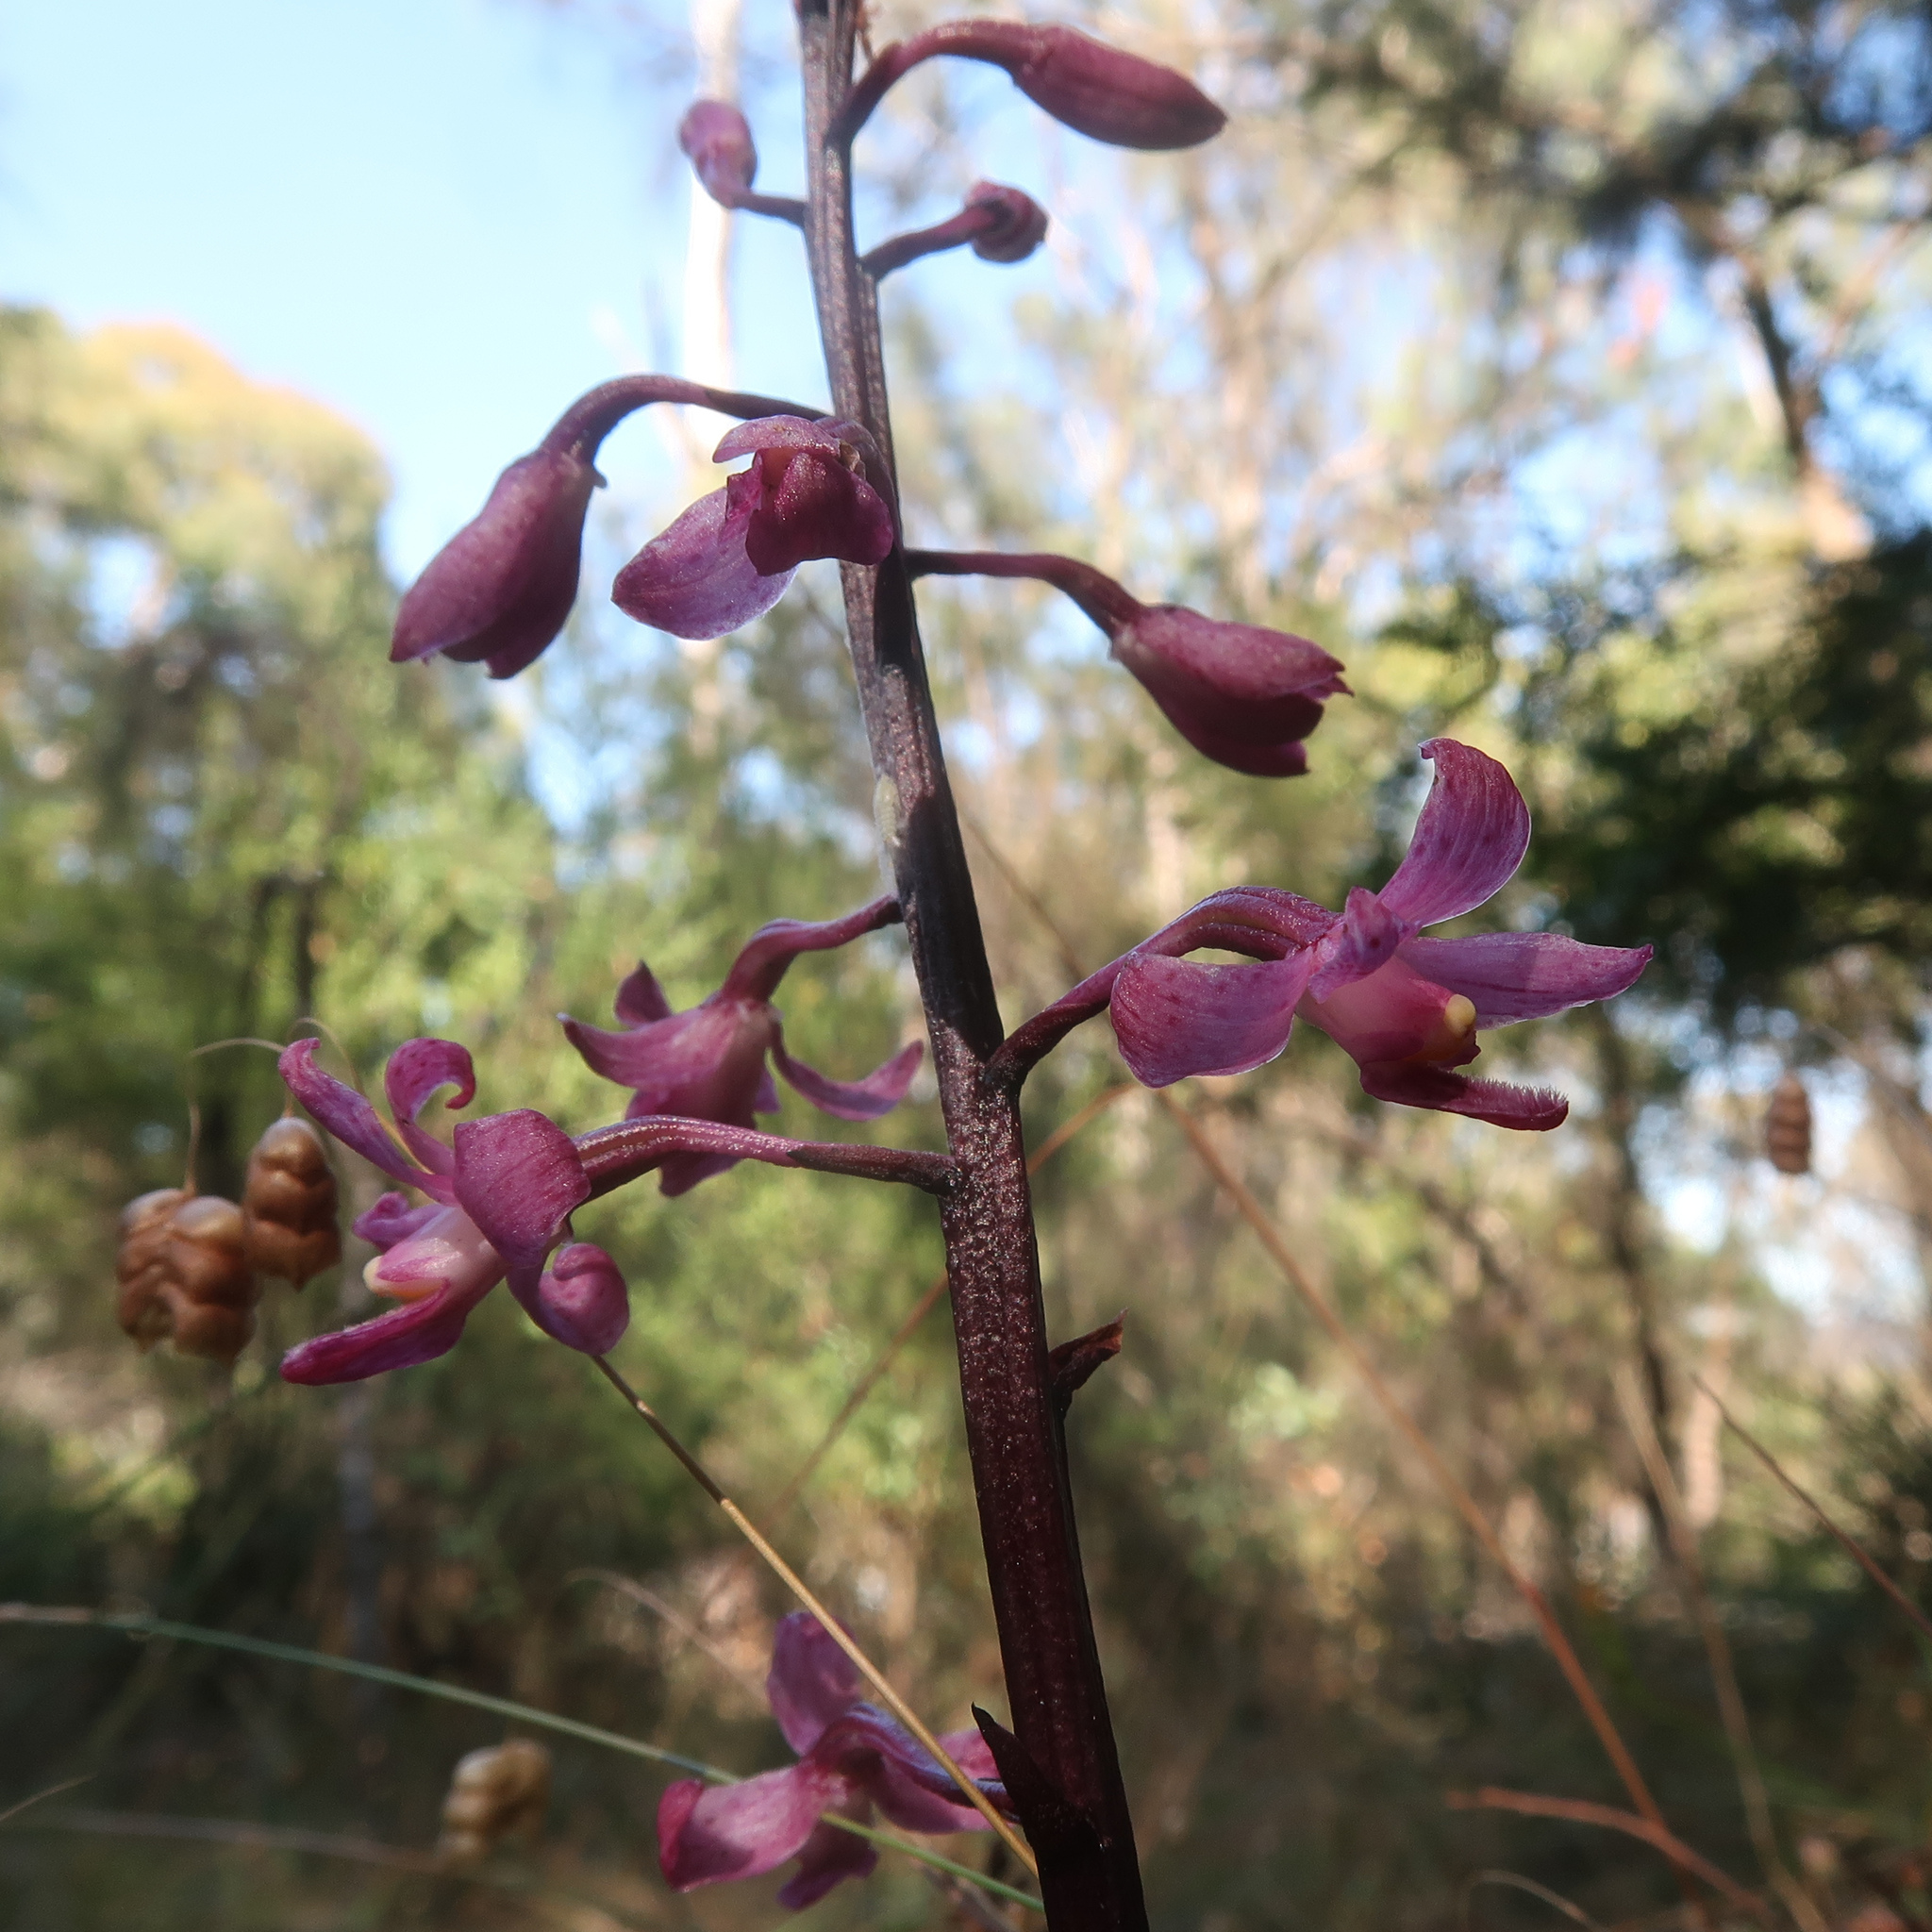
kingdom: Plantae
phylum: Tracheophyta
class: Liliopsida
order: Asparagales
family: Orchidaceae
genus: Dipodium
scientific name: Dipodium roseum
